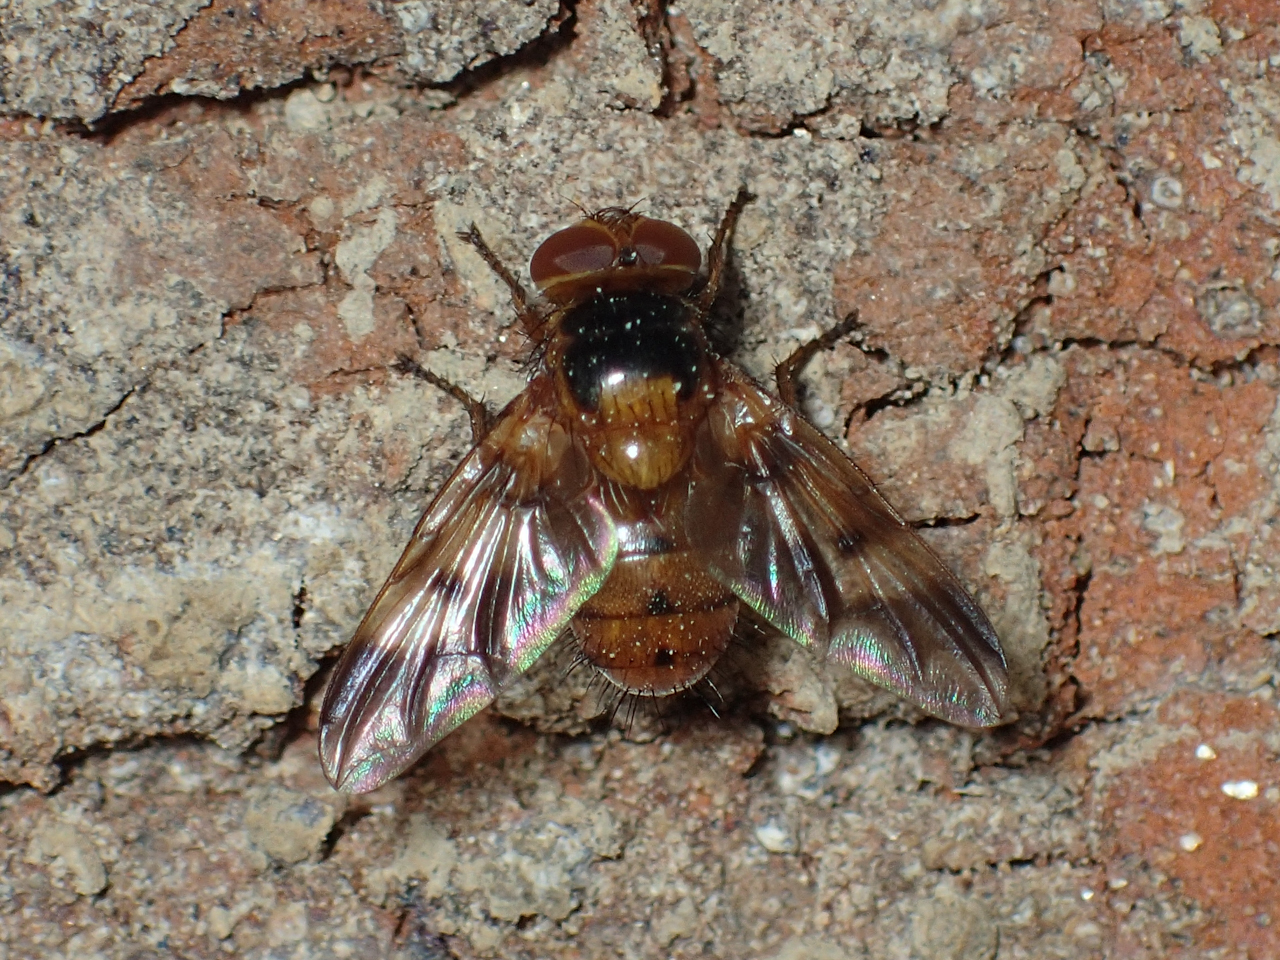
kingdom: Animalia
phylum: Arthropoda
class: Insecta
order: Diptera
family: Tachinidae
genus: Oestrophasia
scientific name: Oestrophasia calva
